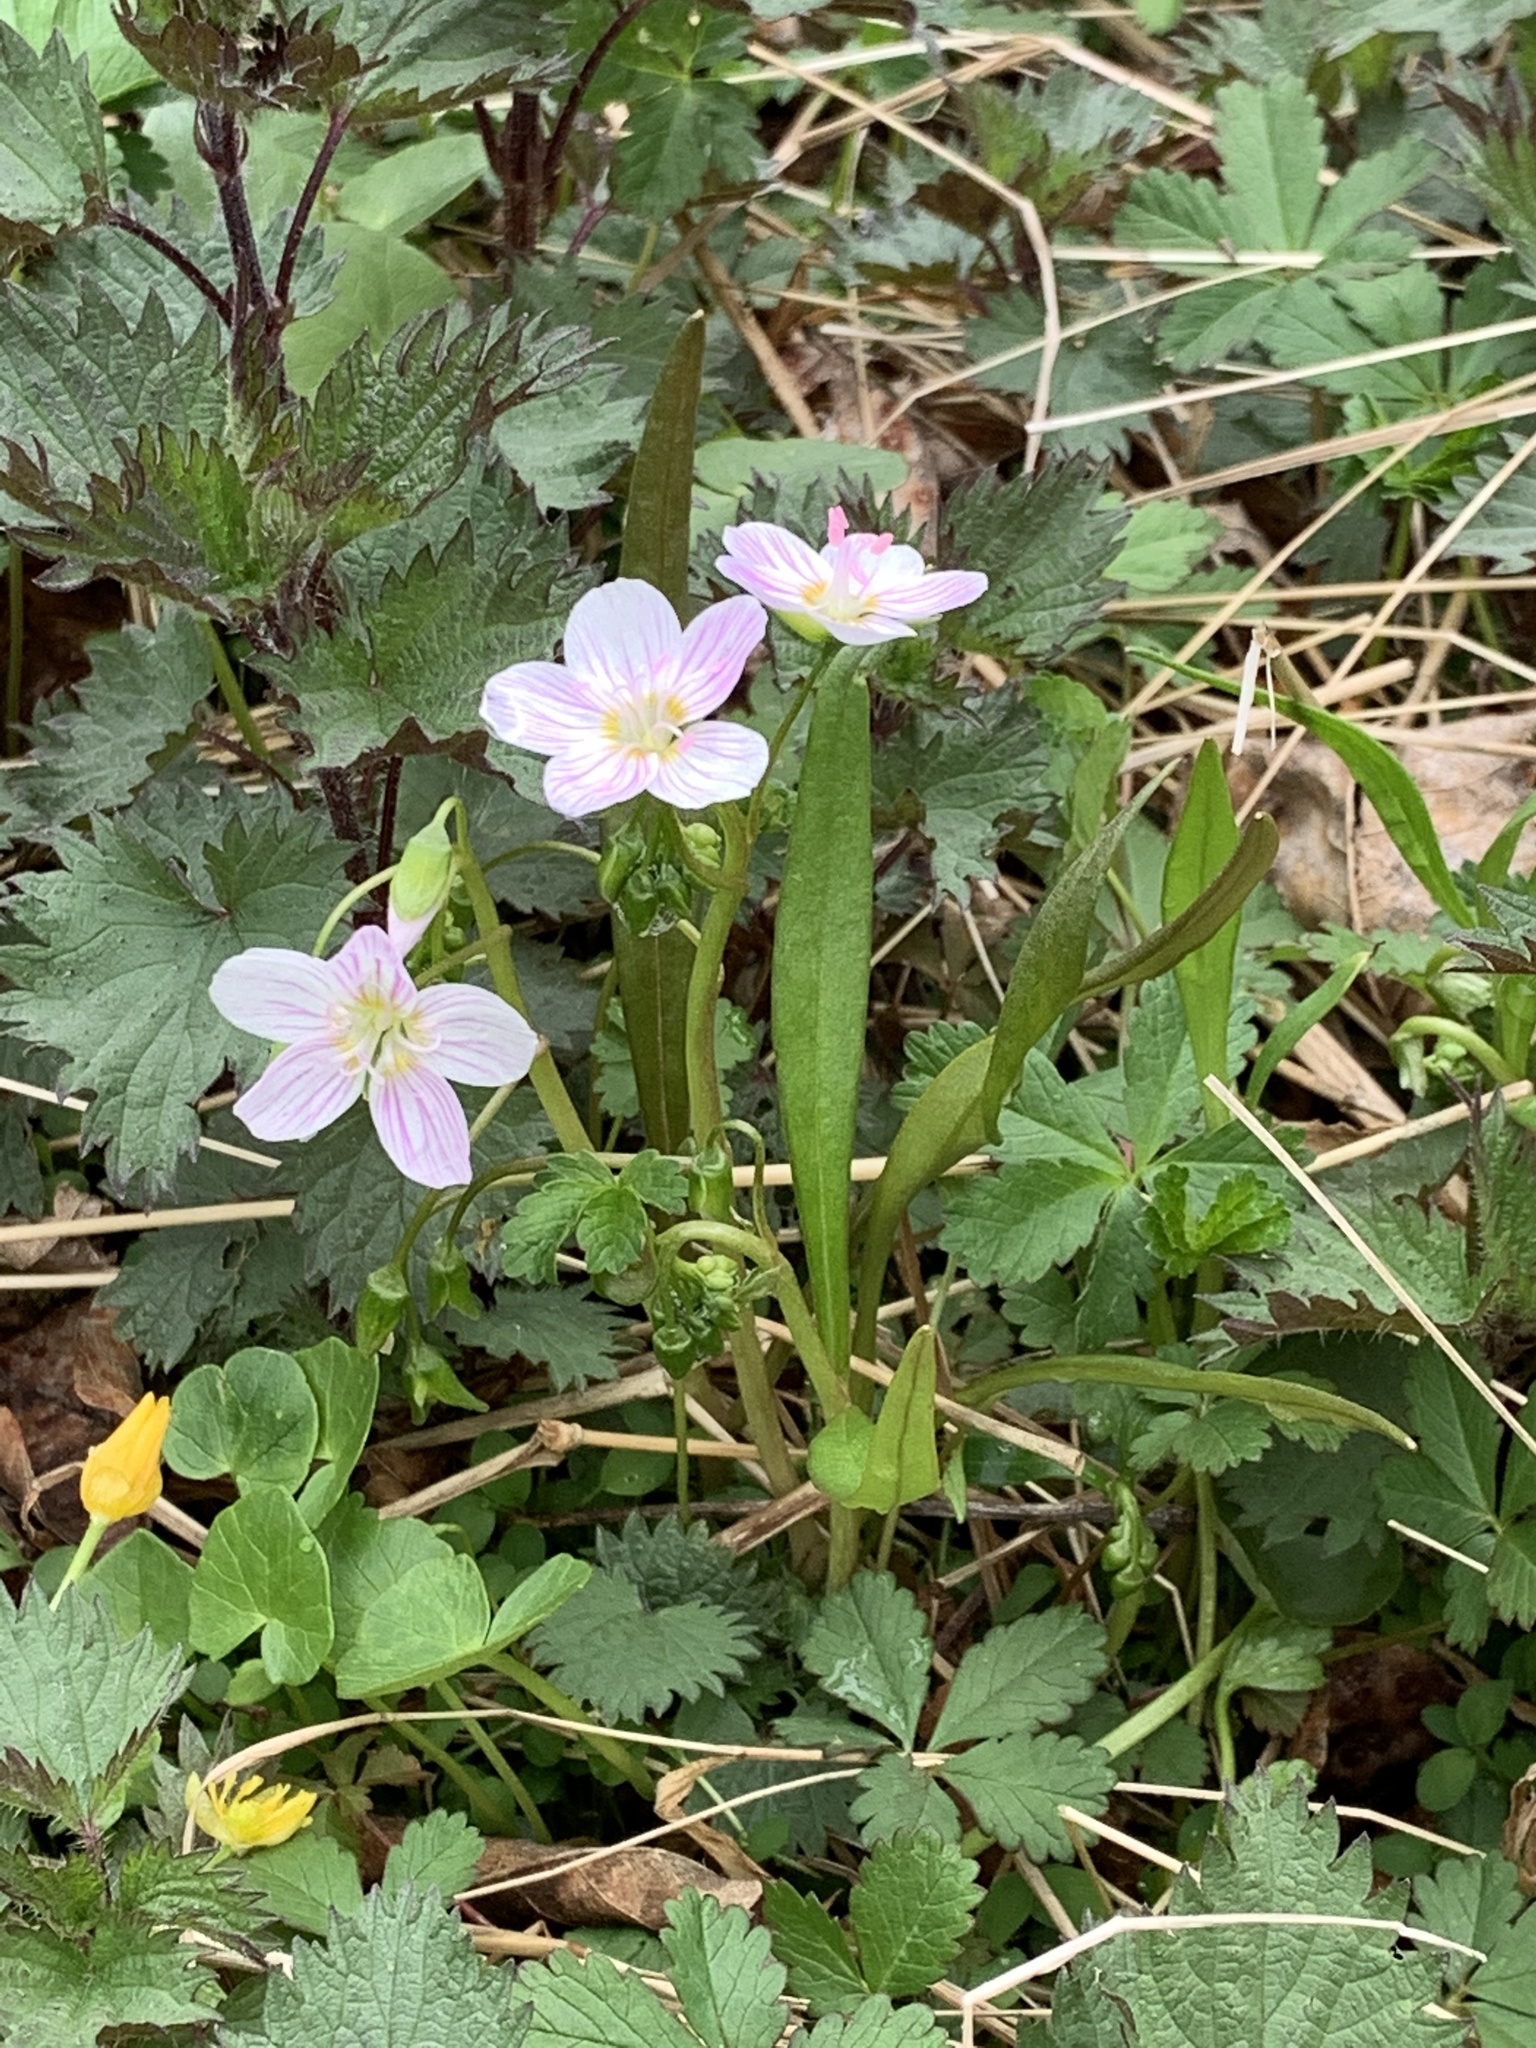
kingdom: Plantae
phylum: Tracheophyta
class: Magnoliopsida
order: Caryophyllales
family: Montiaceae
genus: Claytonia
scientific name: Claytonia virginica
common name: Virginia springbeauty
